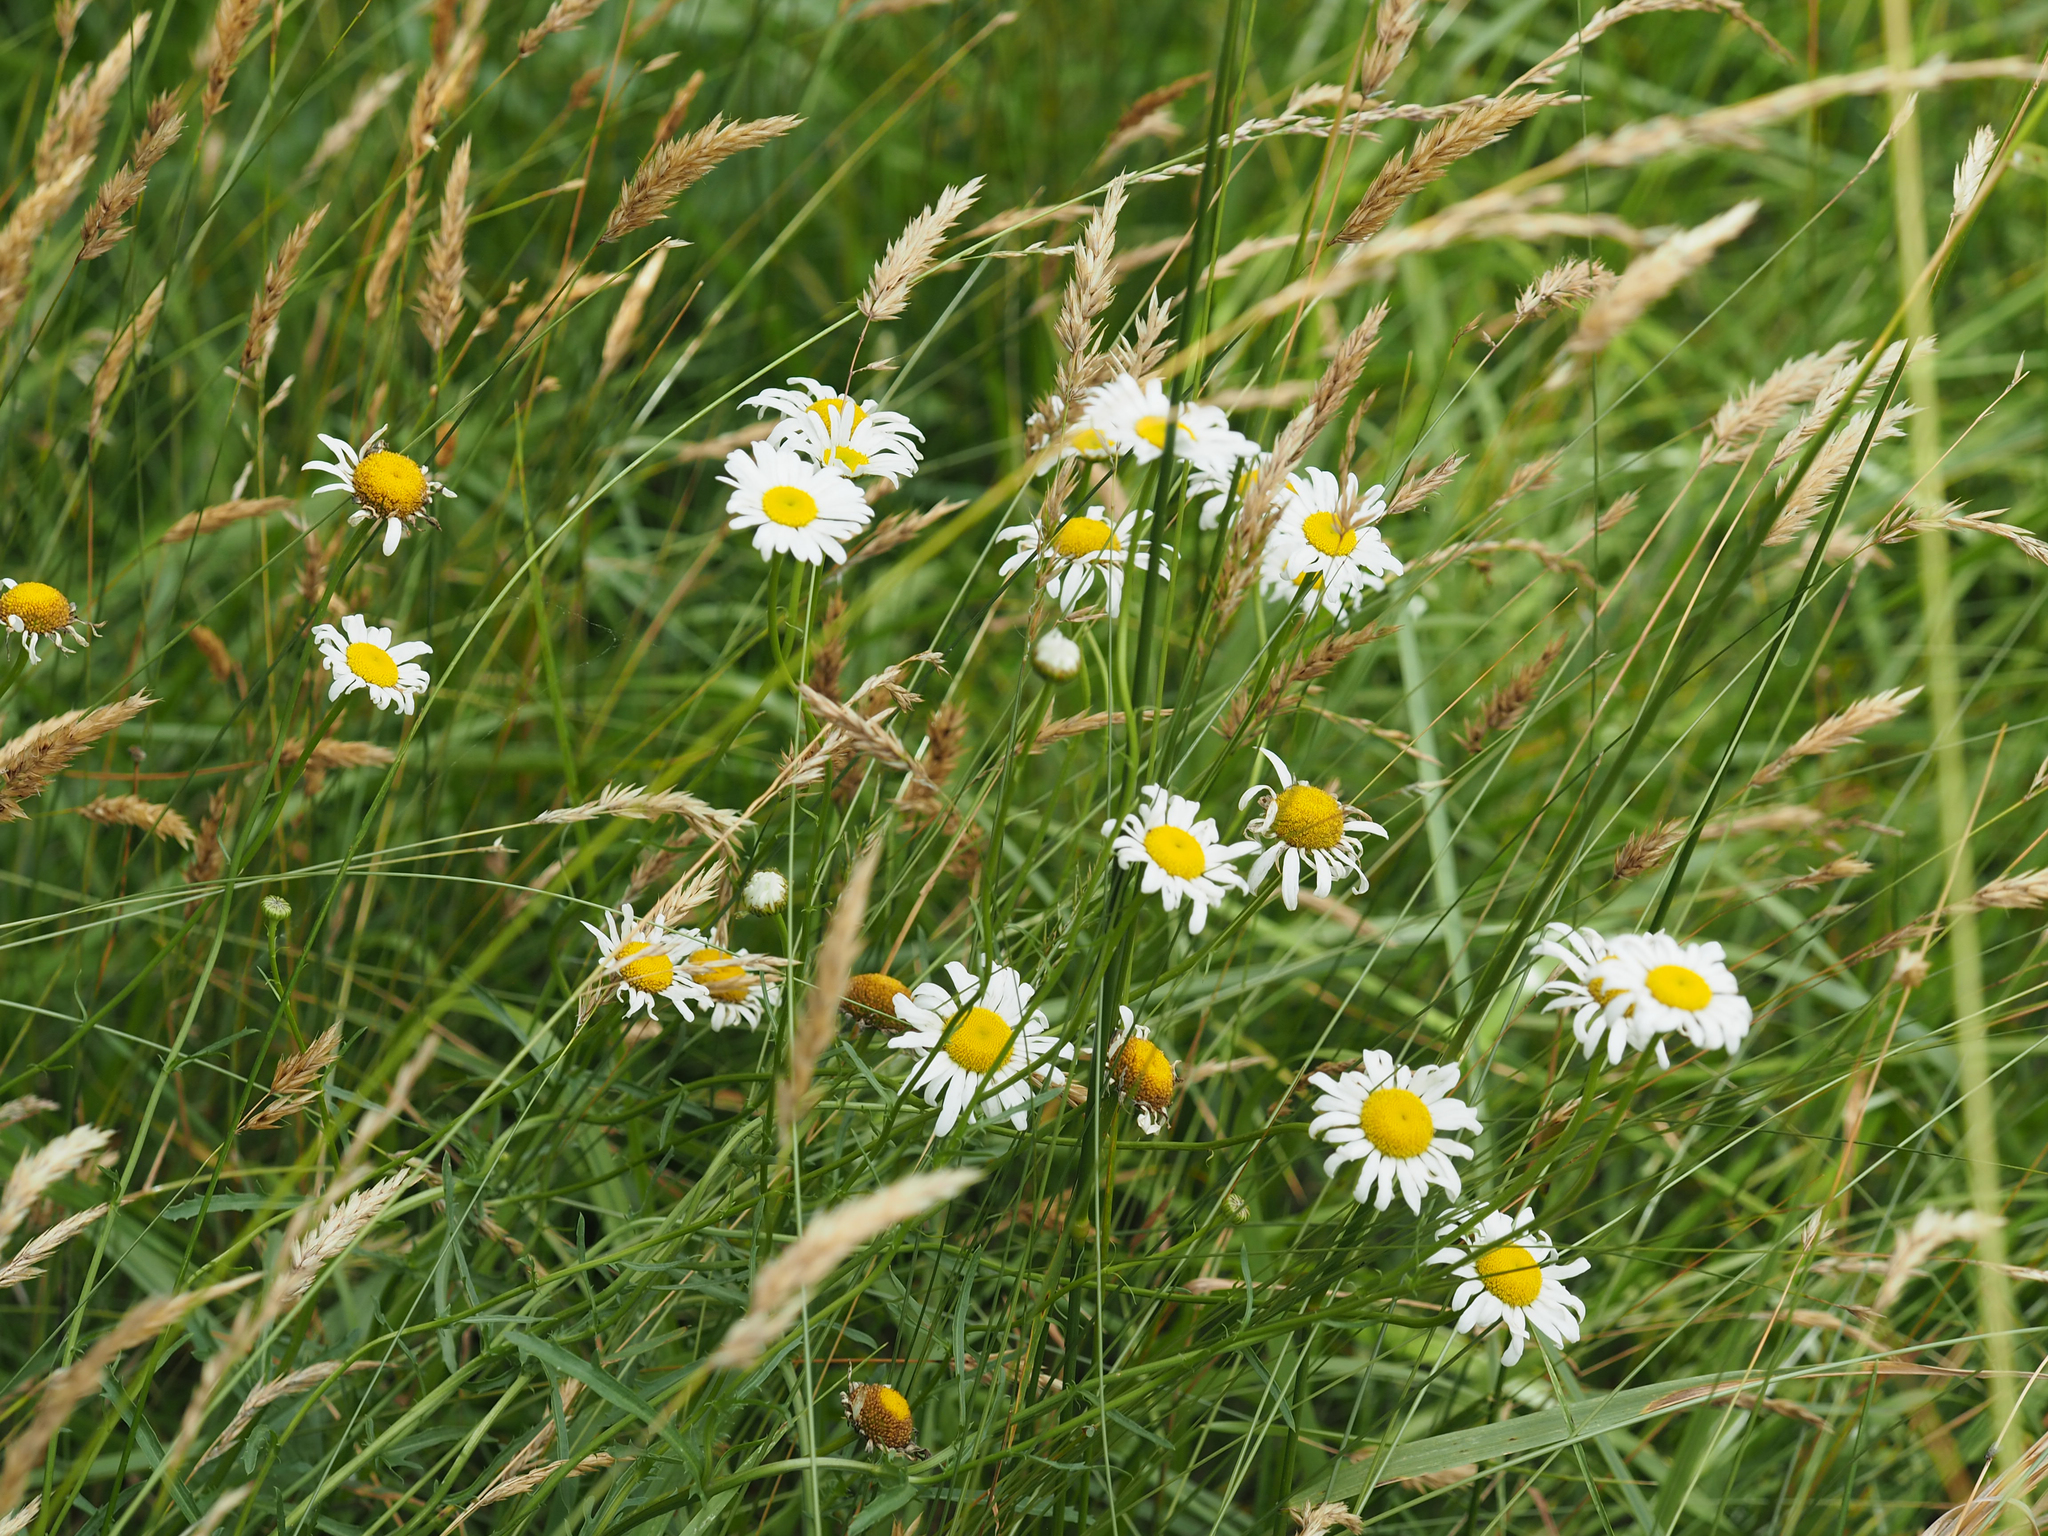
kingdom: Plantae
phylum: Tracheophyta
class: Magnoliopsida
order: Asterales
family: Asteraceae
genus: Leucanthemum
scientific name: Leucanthemum vulgare
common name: Oxeye daisy
